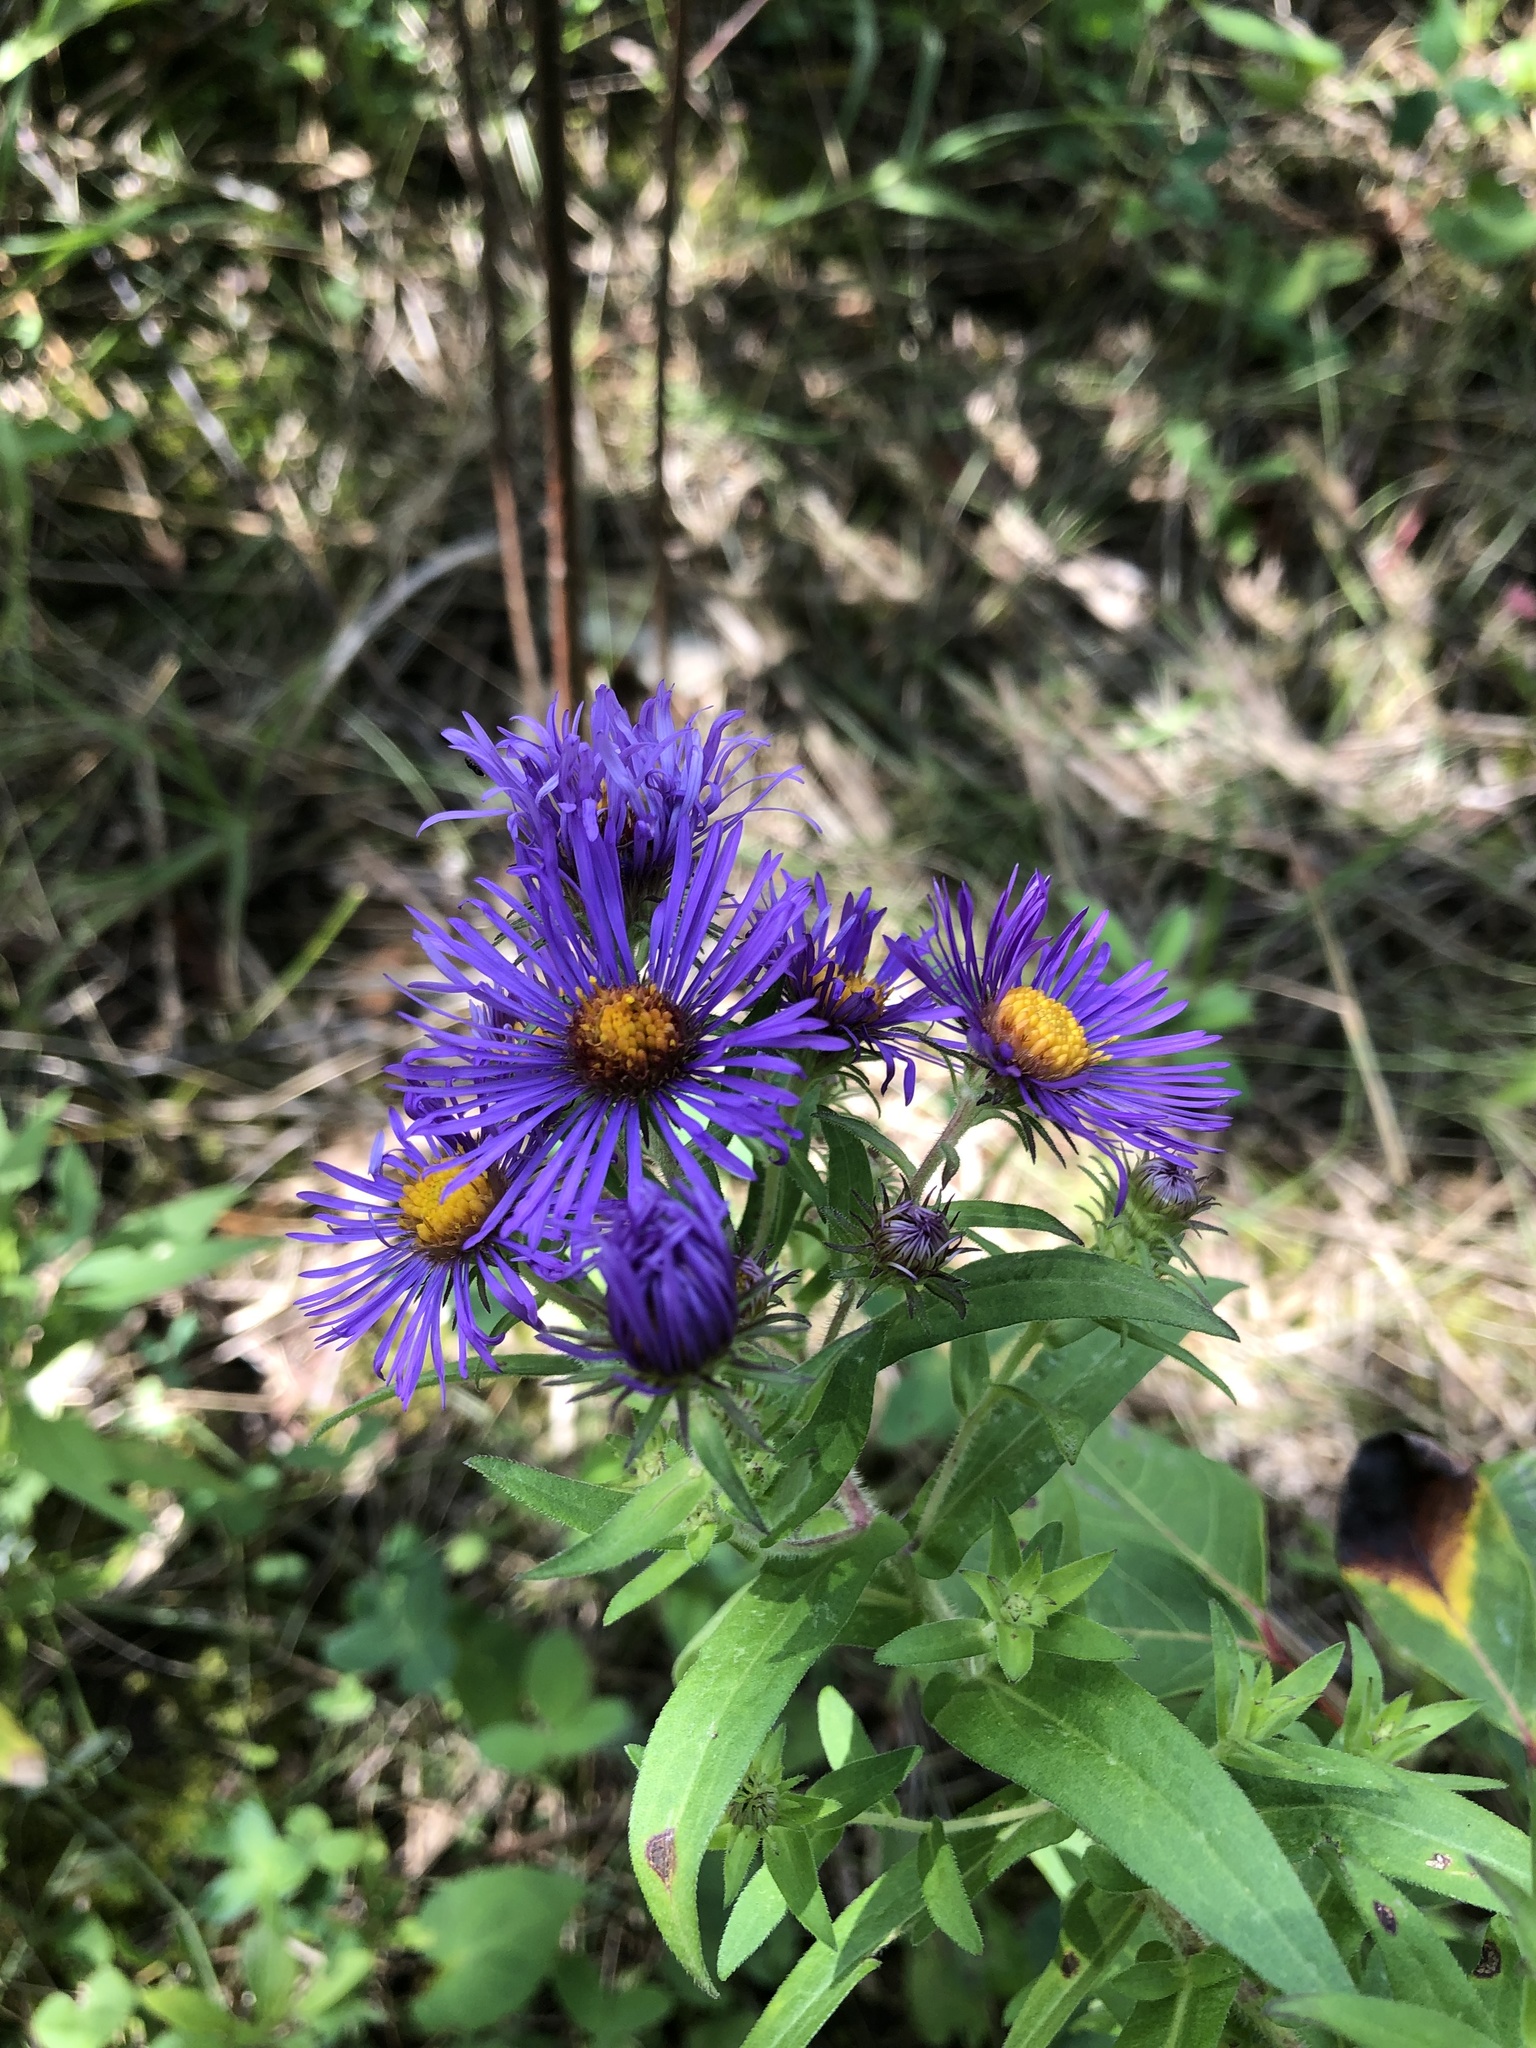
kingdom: Plantae
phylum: Tracheophyta
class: Magnoliopsida
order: Asterales
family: Asteraceae
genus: Symphyotrichum
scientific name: Symphyotrichum novae-angliae
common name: Michaelmas daisy
